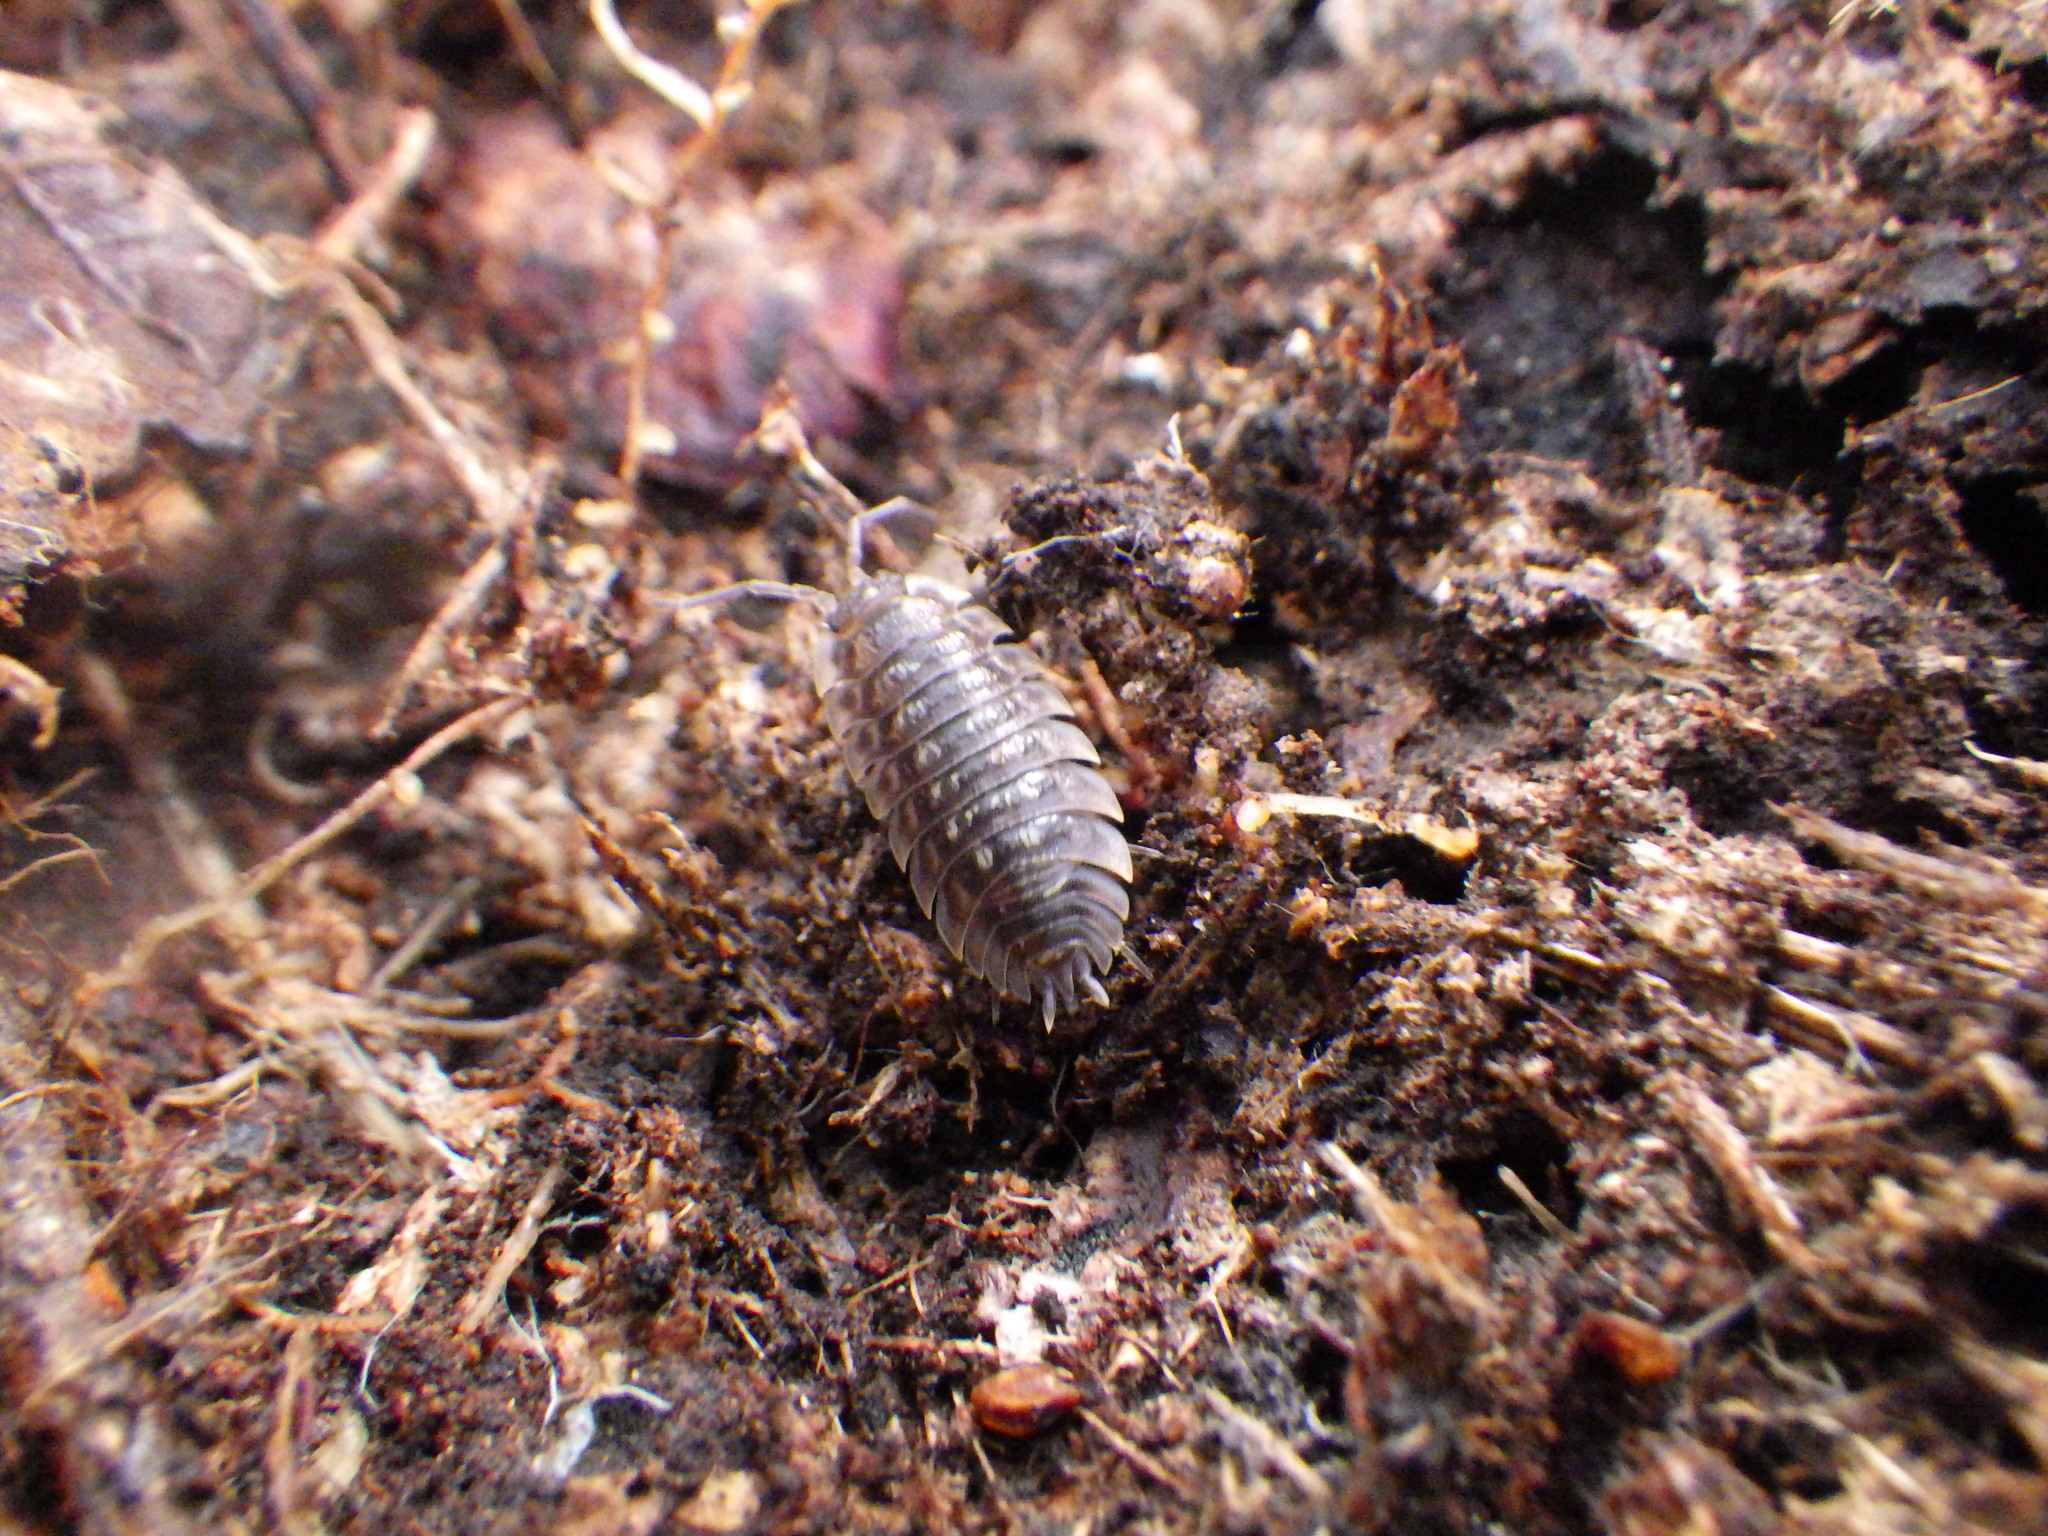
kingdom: Animalia
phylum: Arthropoda
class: Malacostraca
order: Isopoda
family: Oniscidae
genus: Oniscus
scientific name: Oniscus asellus
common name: Common shiny woodlouse
